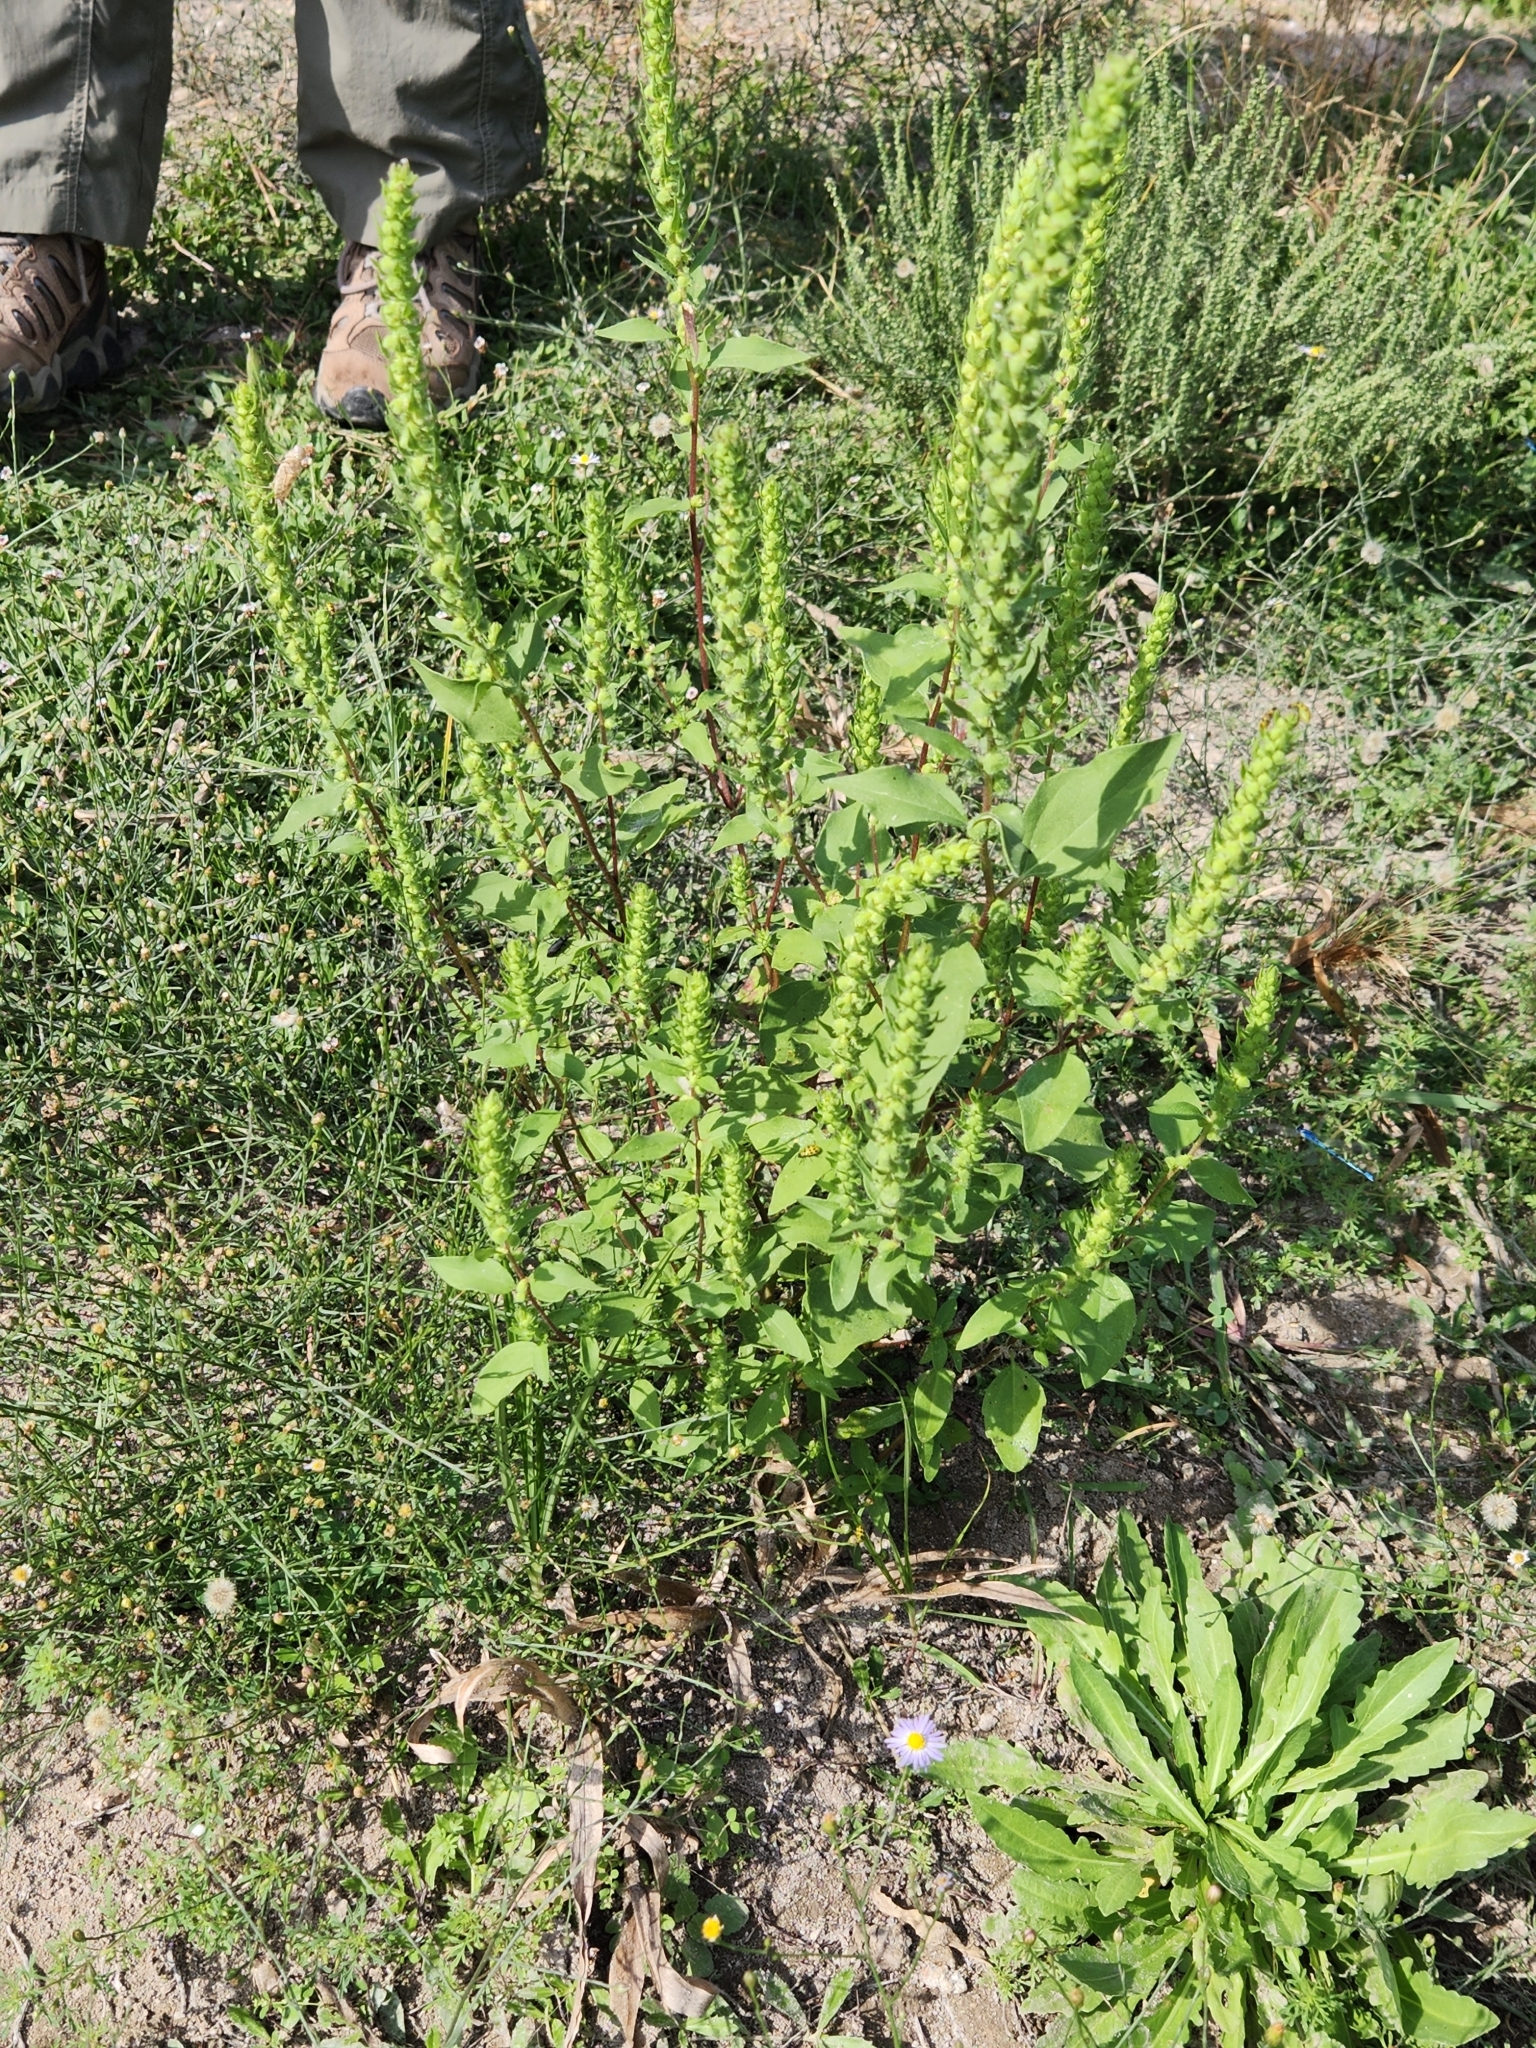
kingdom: Plantae
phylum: Tracheophyta
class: Magnoliopsida
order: Asterales
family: Asteraceae
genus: Iva
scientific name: Iva annua
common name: Marsh-elder
